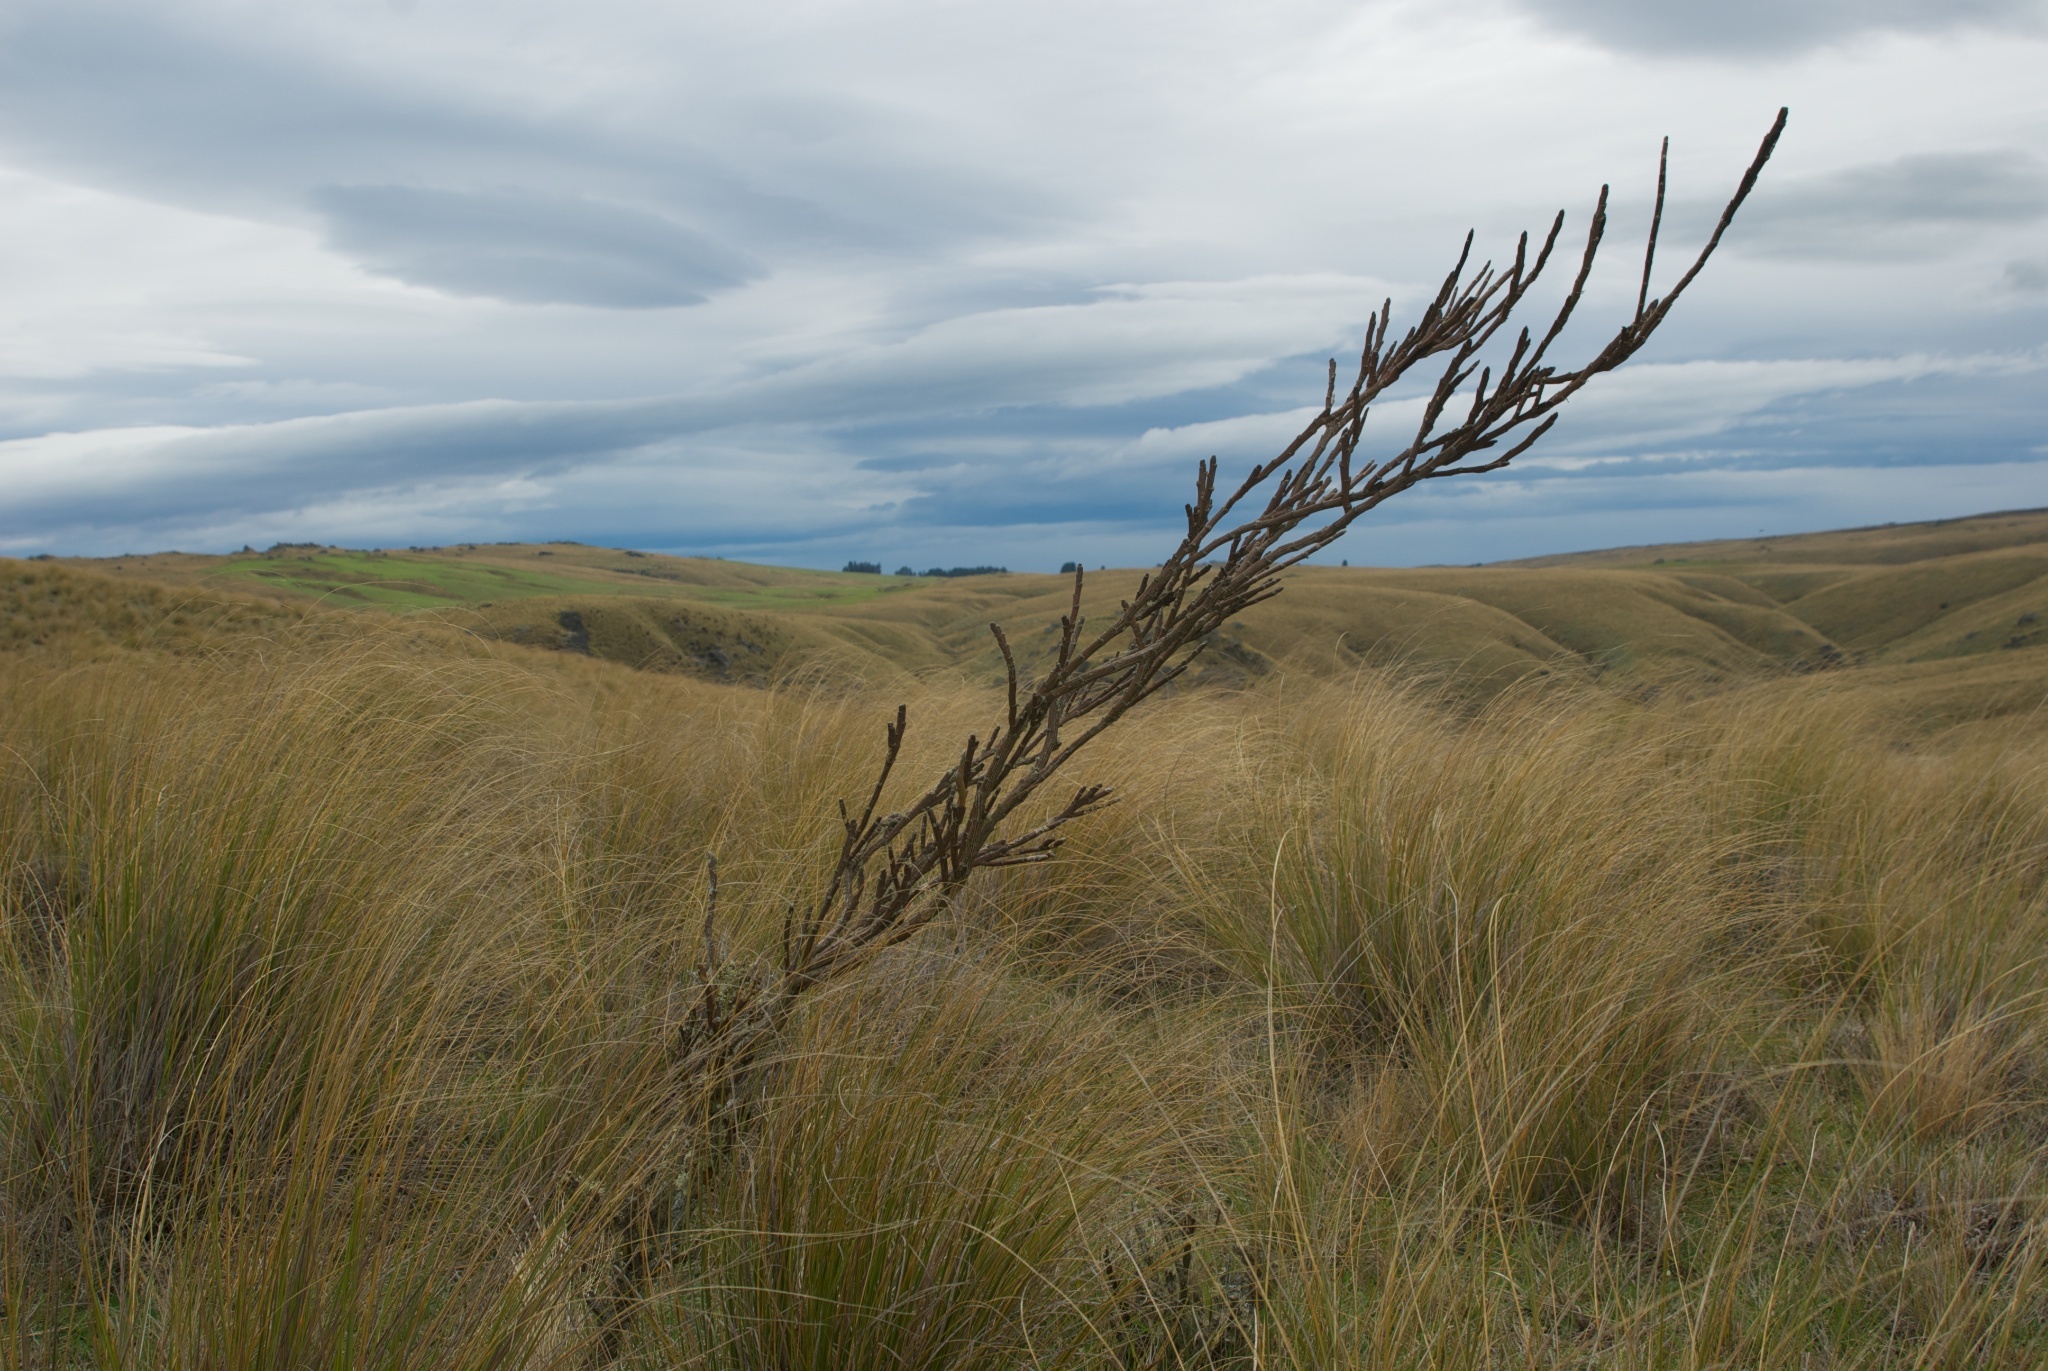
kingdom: Plantae
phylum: Tracheophyta
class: Magnoliopsida
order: Fabales
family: Fabaceae
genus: Carmichaelia
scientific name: Carmichaelia crassicaulis
